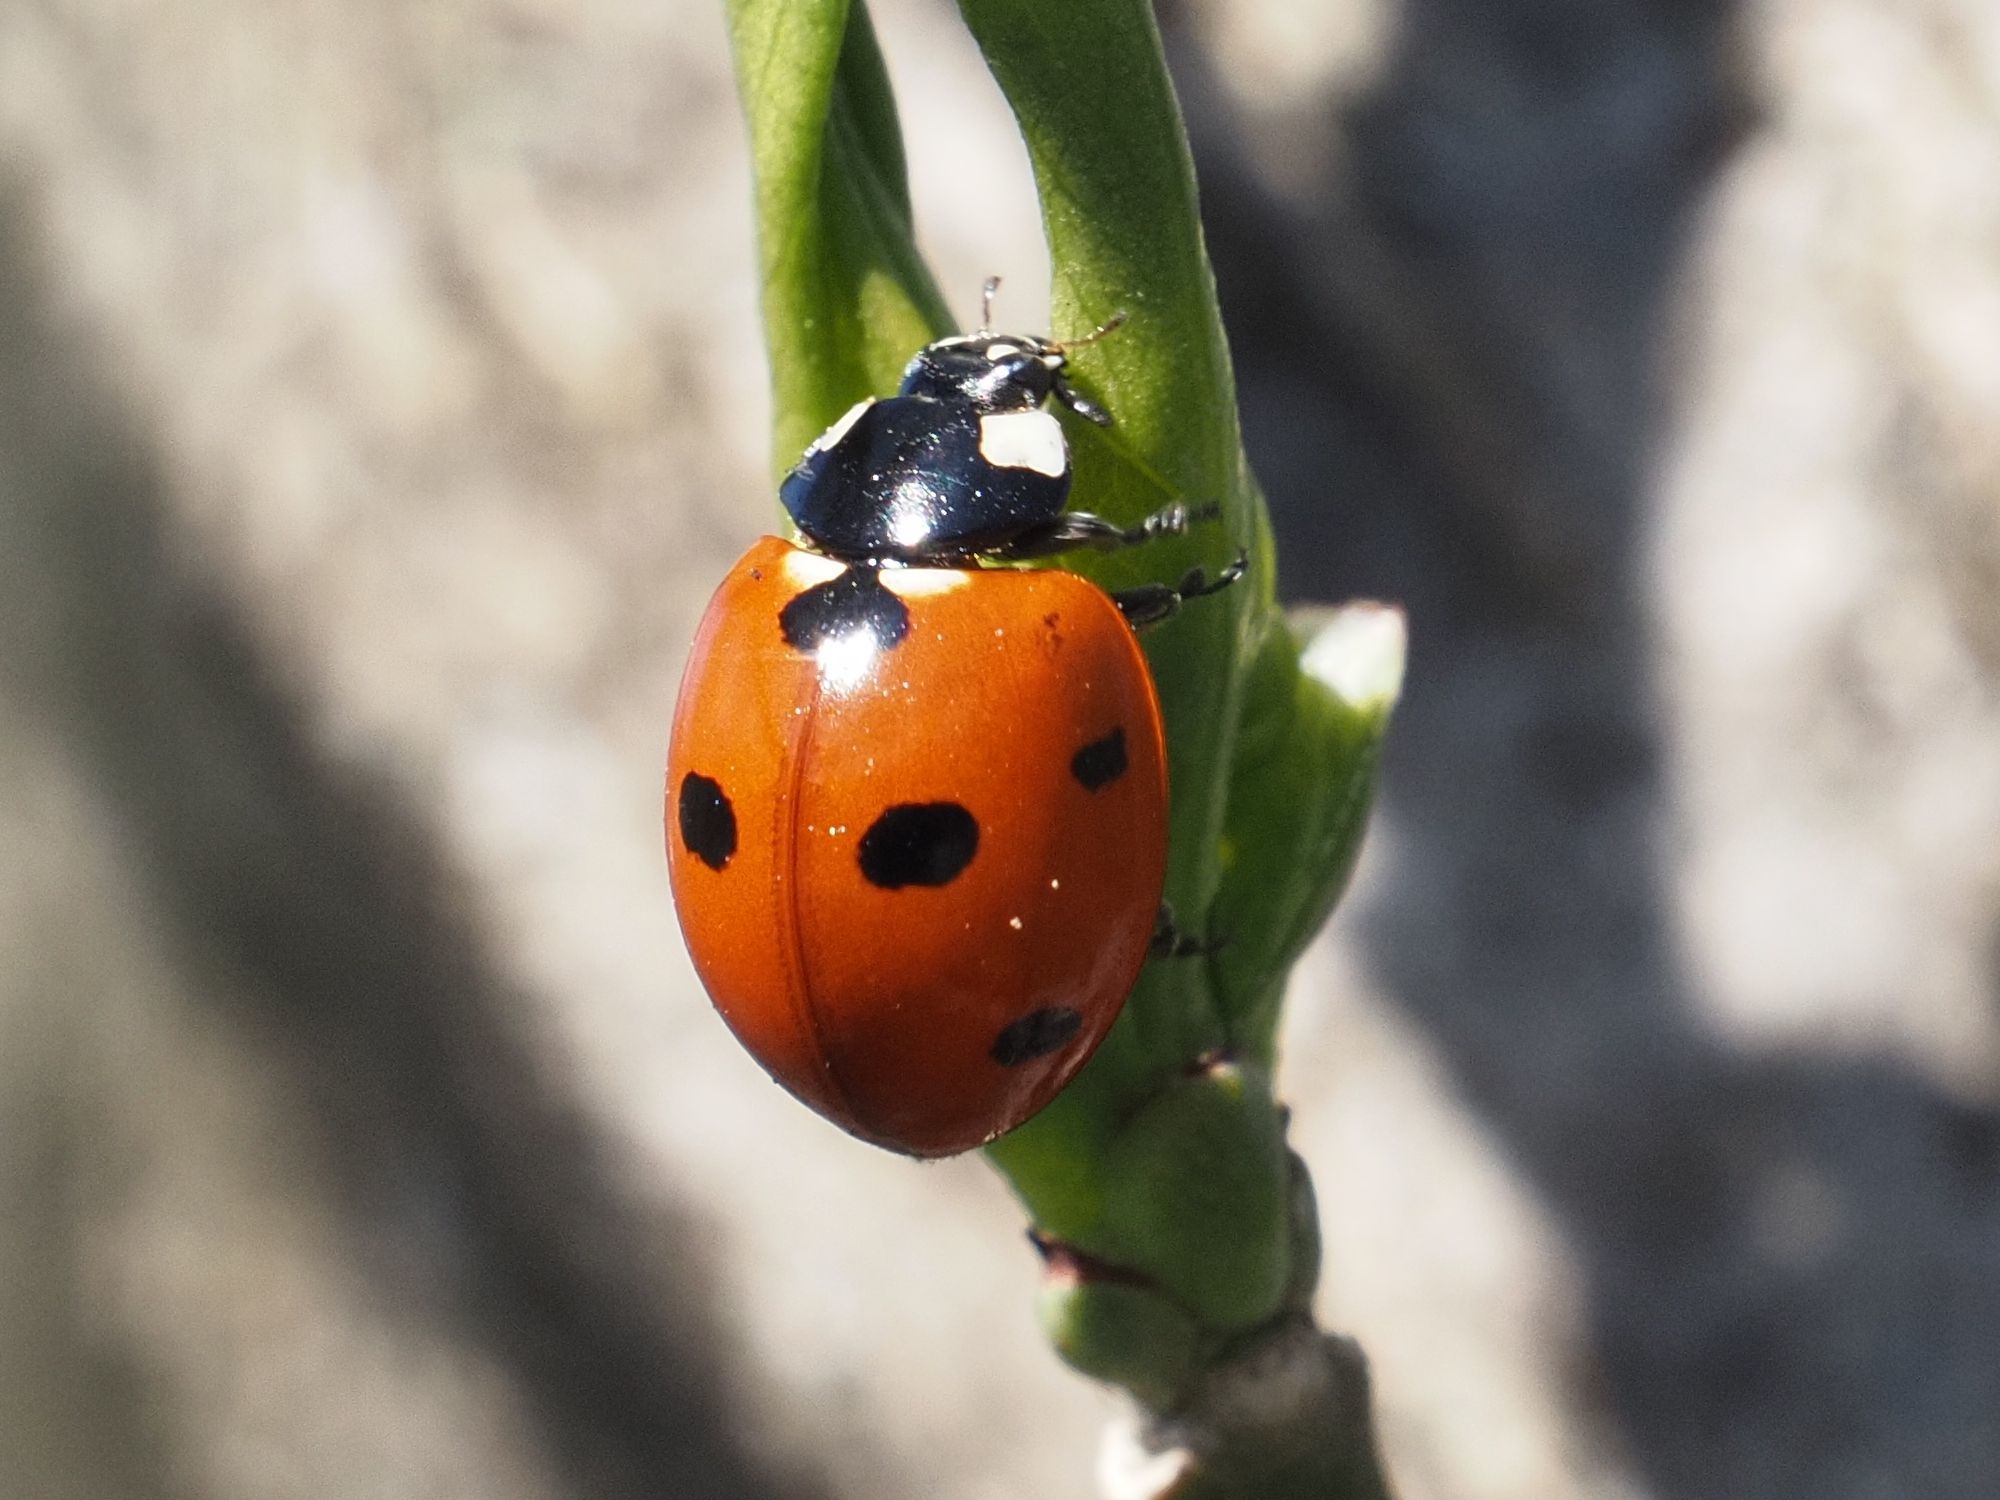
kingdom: Animalia
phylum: Arthropoda
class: Insecta
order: Coleoptera
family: Coccinellidae
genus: Coccinella
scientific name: Coccinella septempunctata
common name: Sevenspotted lady beetle
